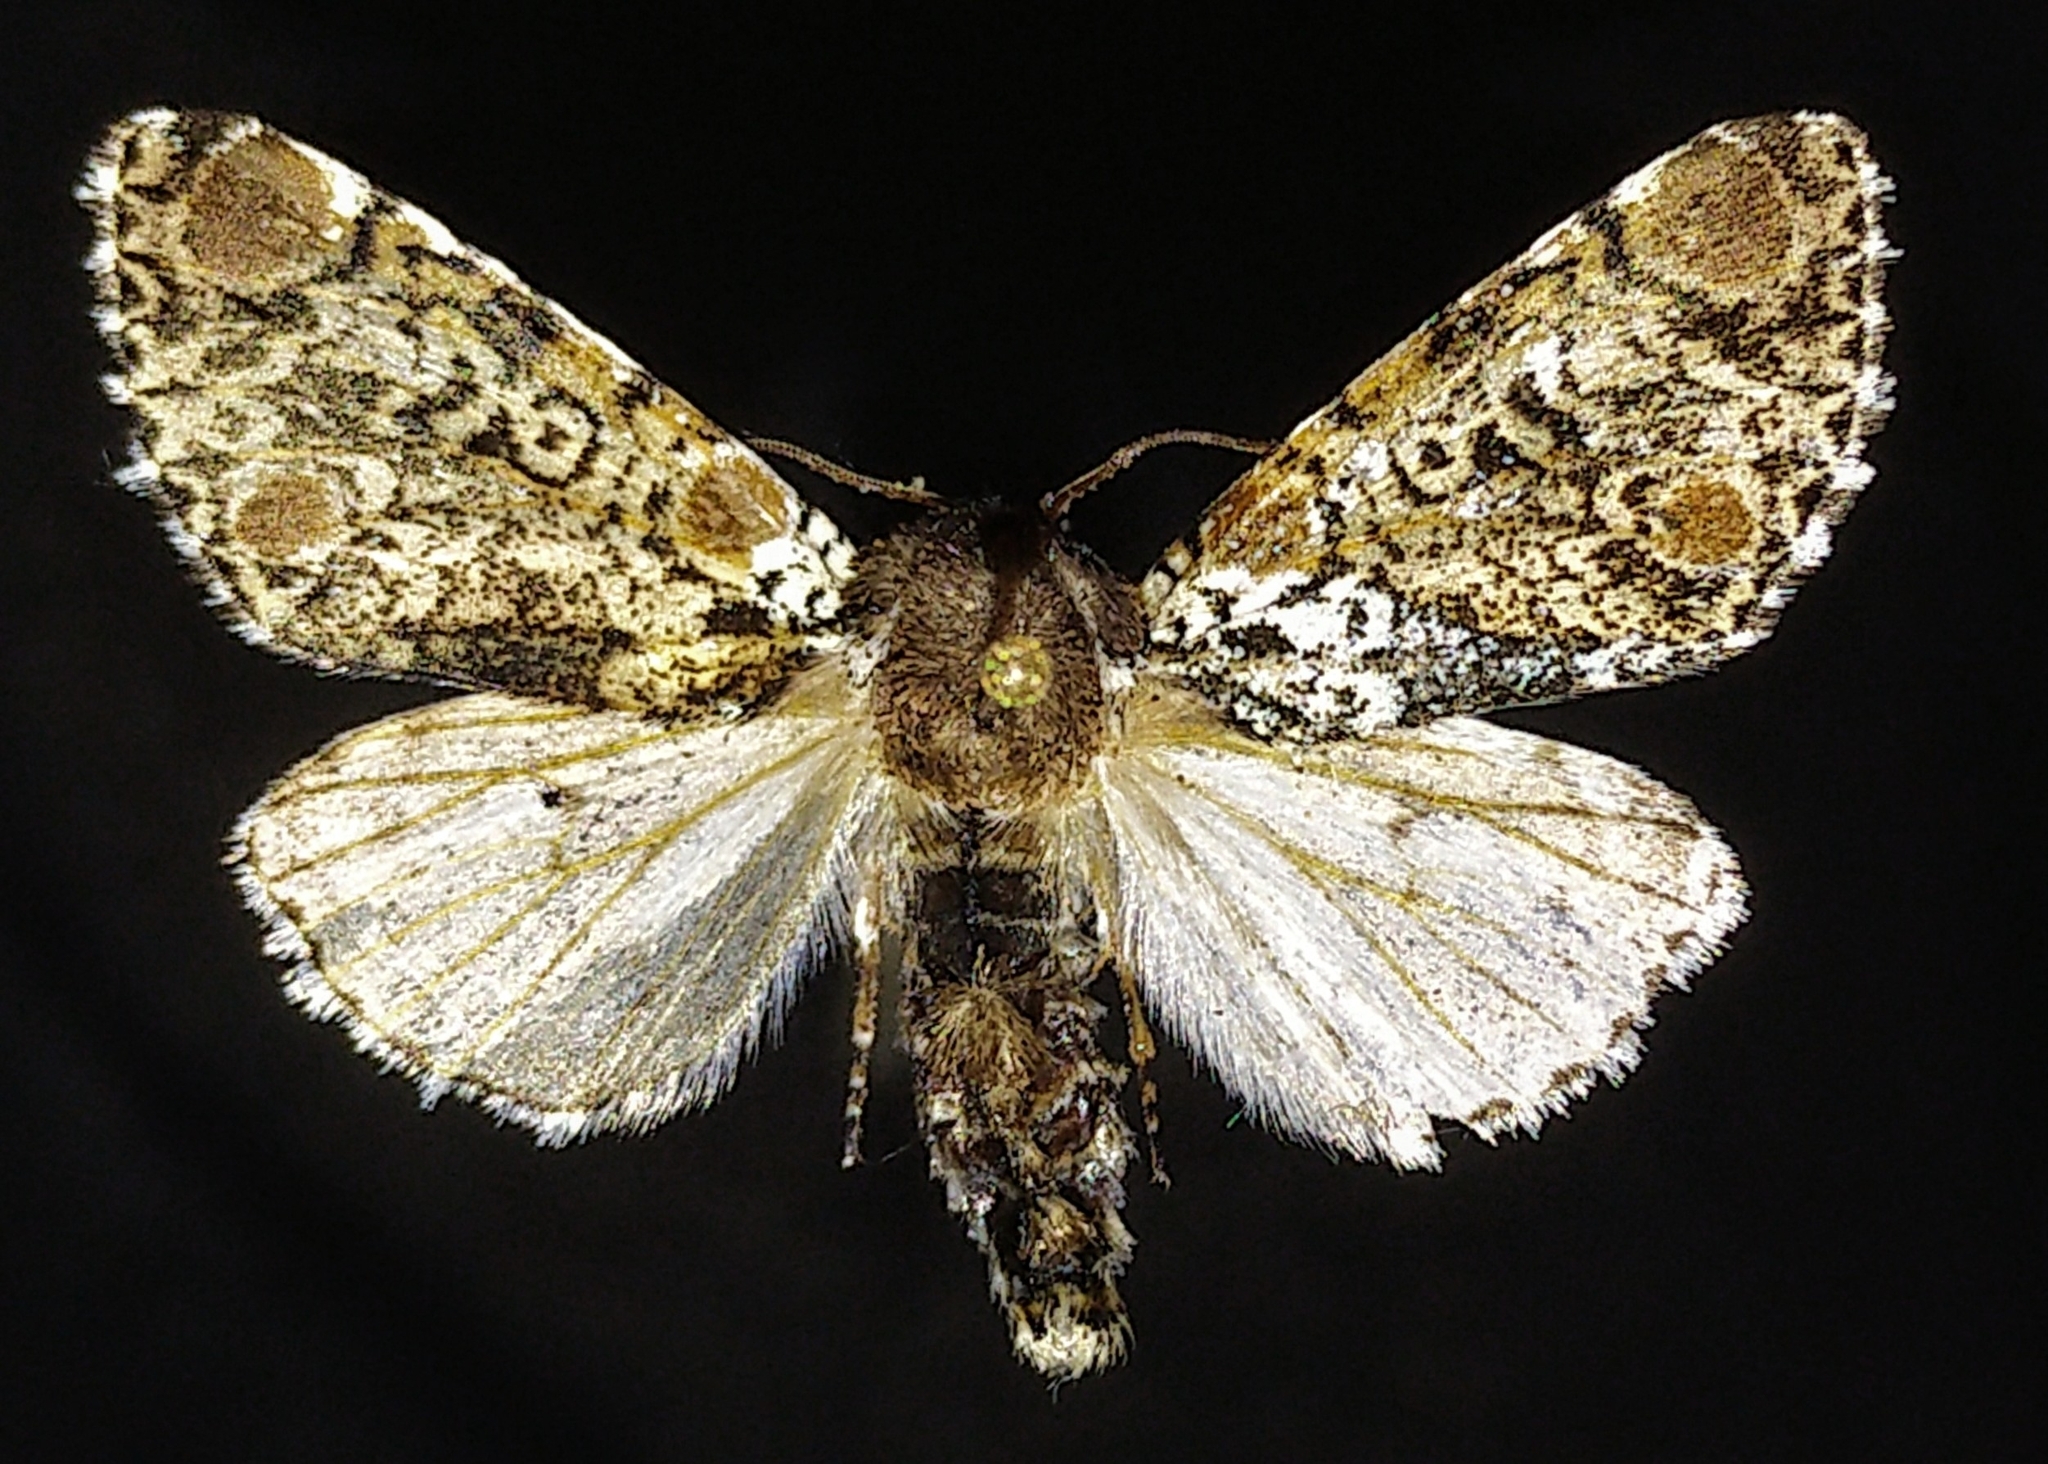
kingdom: Animalia
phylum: Arthropoda
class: Insecta
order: Lepidoptera
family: Noctuidae
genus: Harrisimemna
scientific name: Harrisimemna trisignata
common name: Harris threespot
